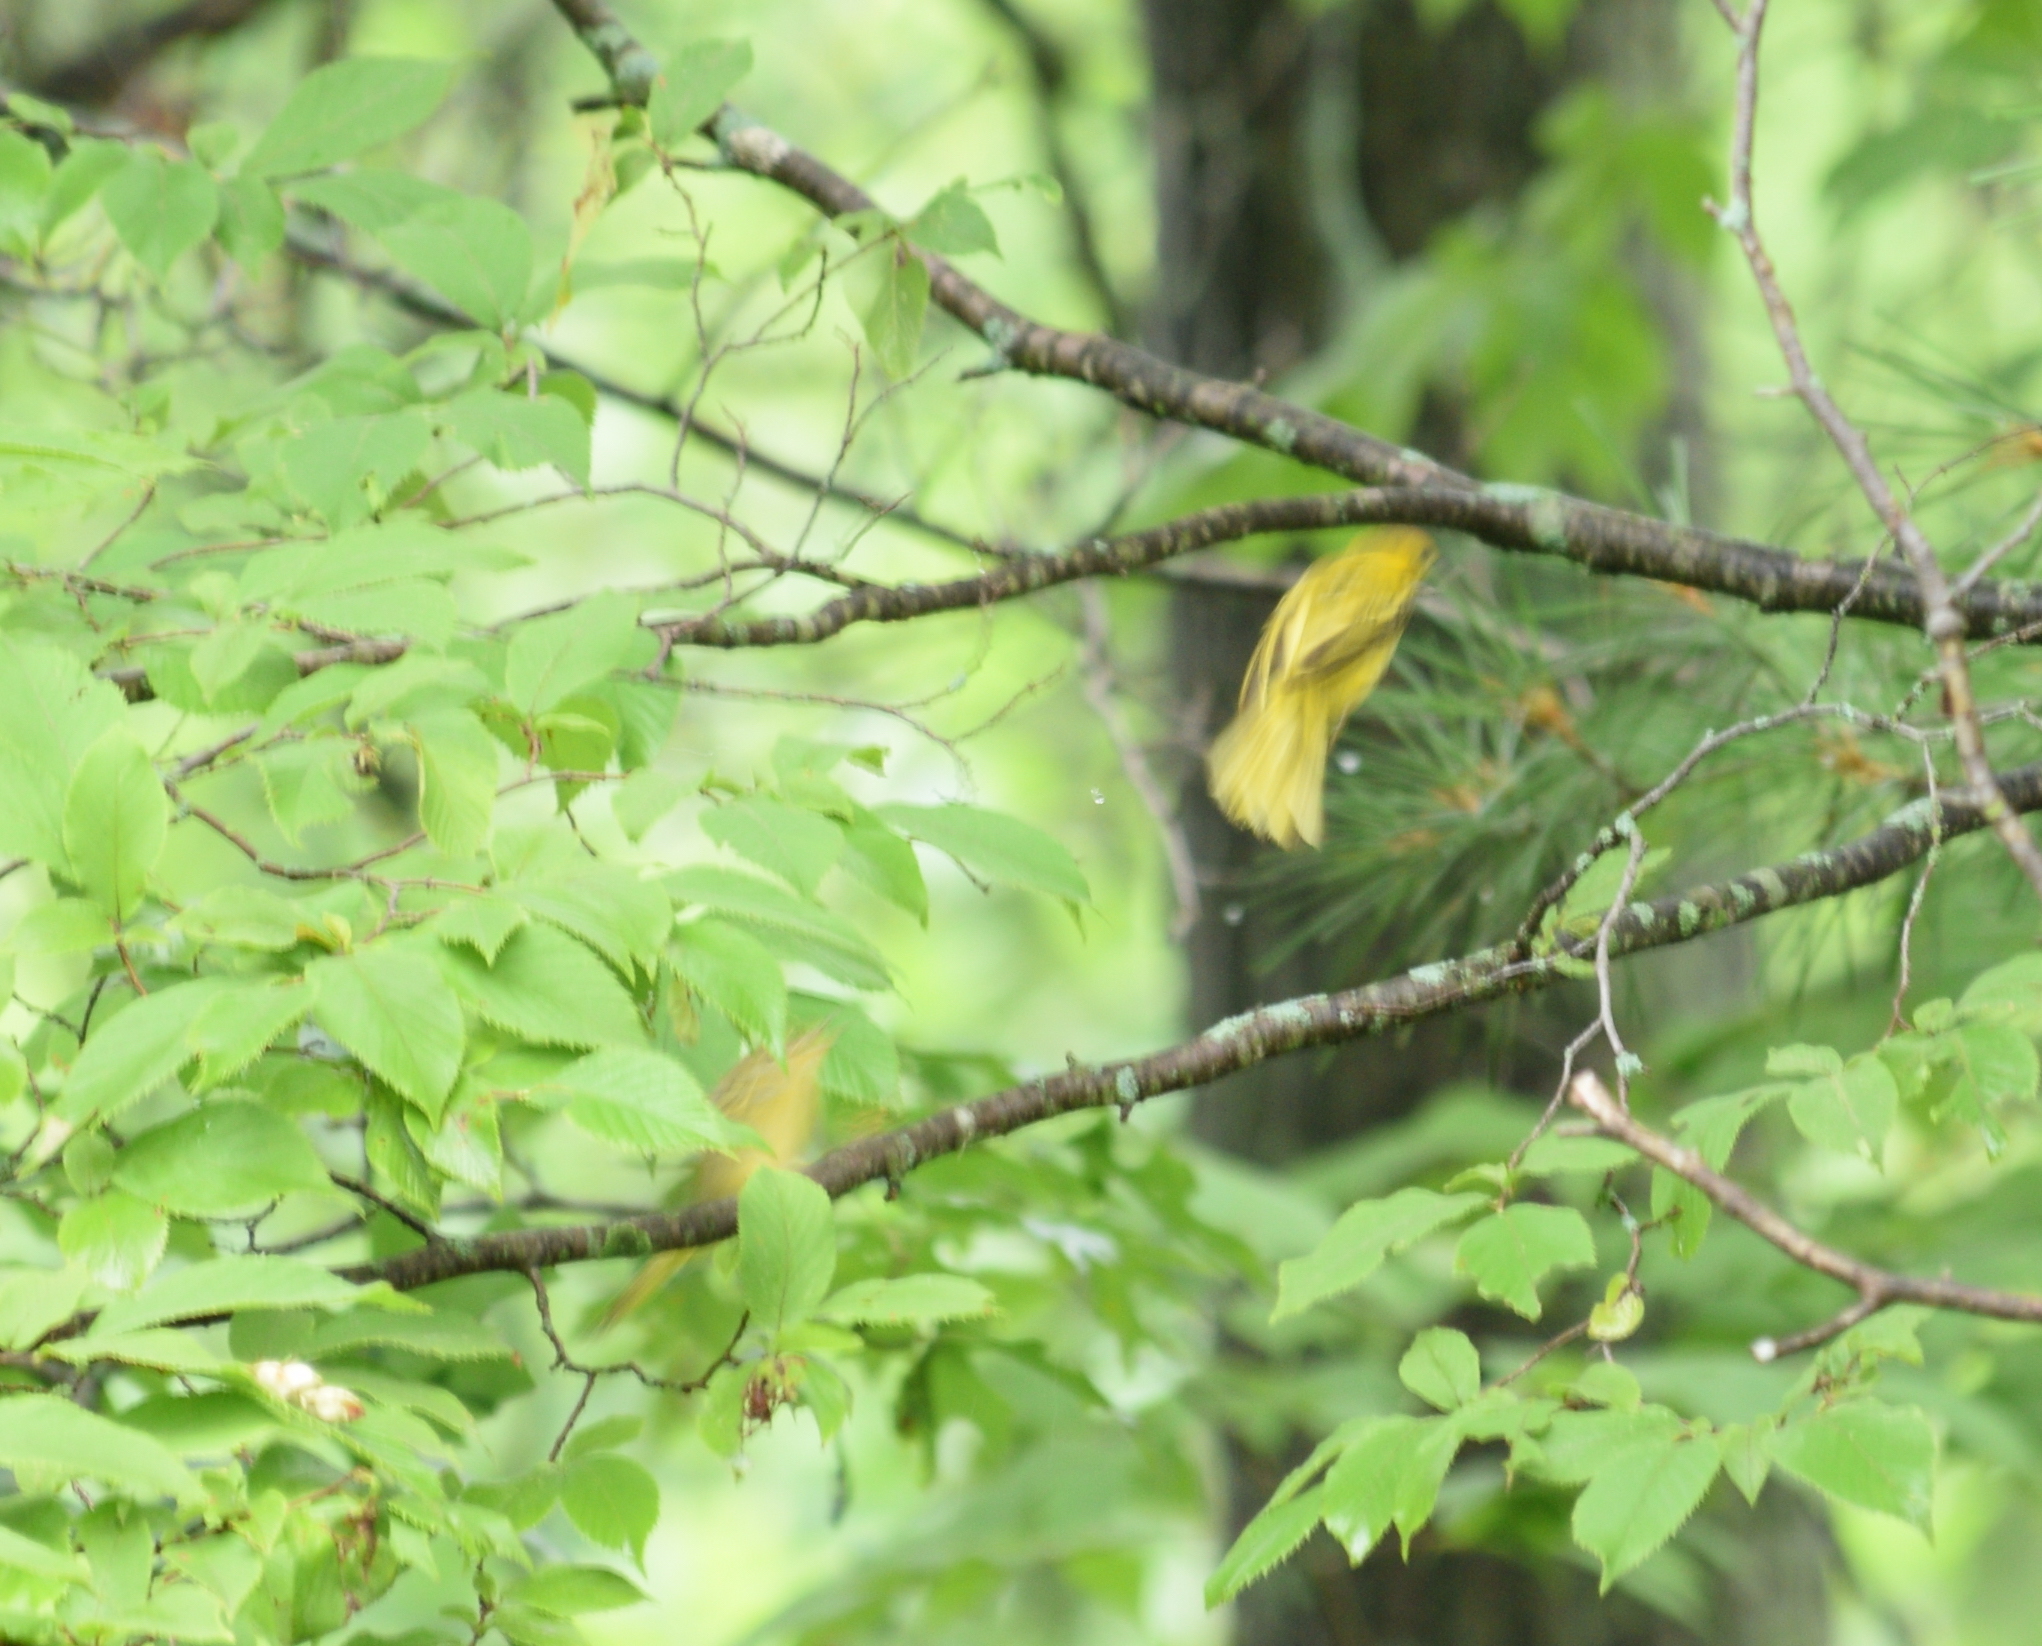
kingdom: Animalia
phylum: Chordata
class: Aves
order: Passeriformes
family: Parulidae
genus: Setophaga
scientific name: Setophaga petechia
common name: Yellow warbler
